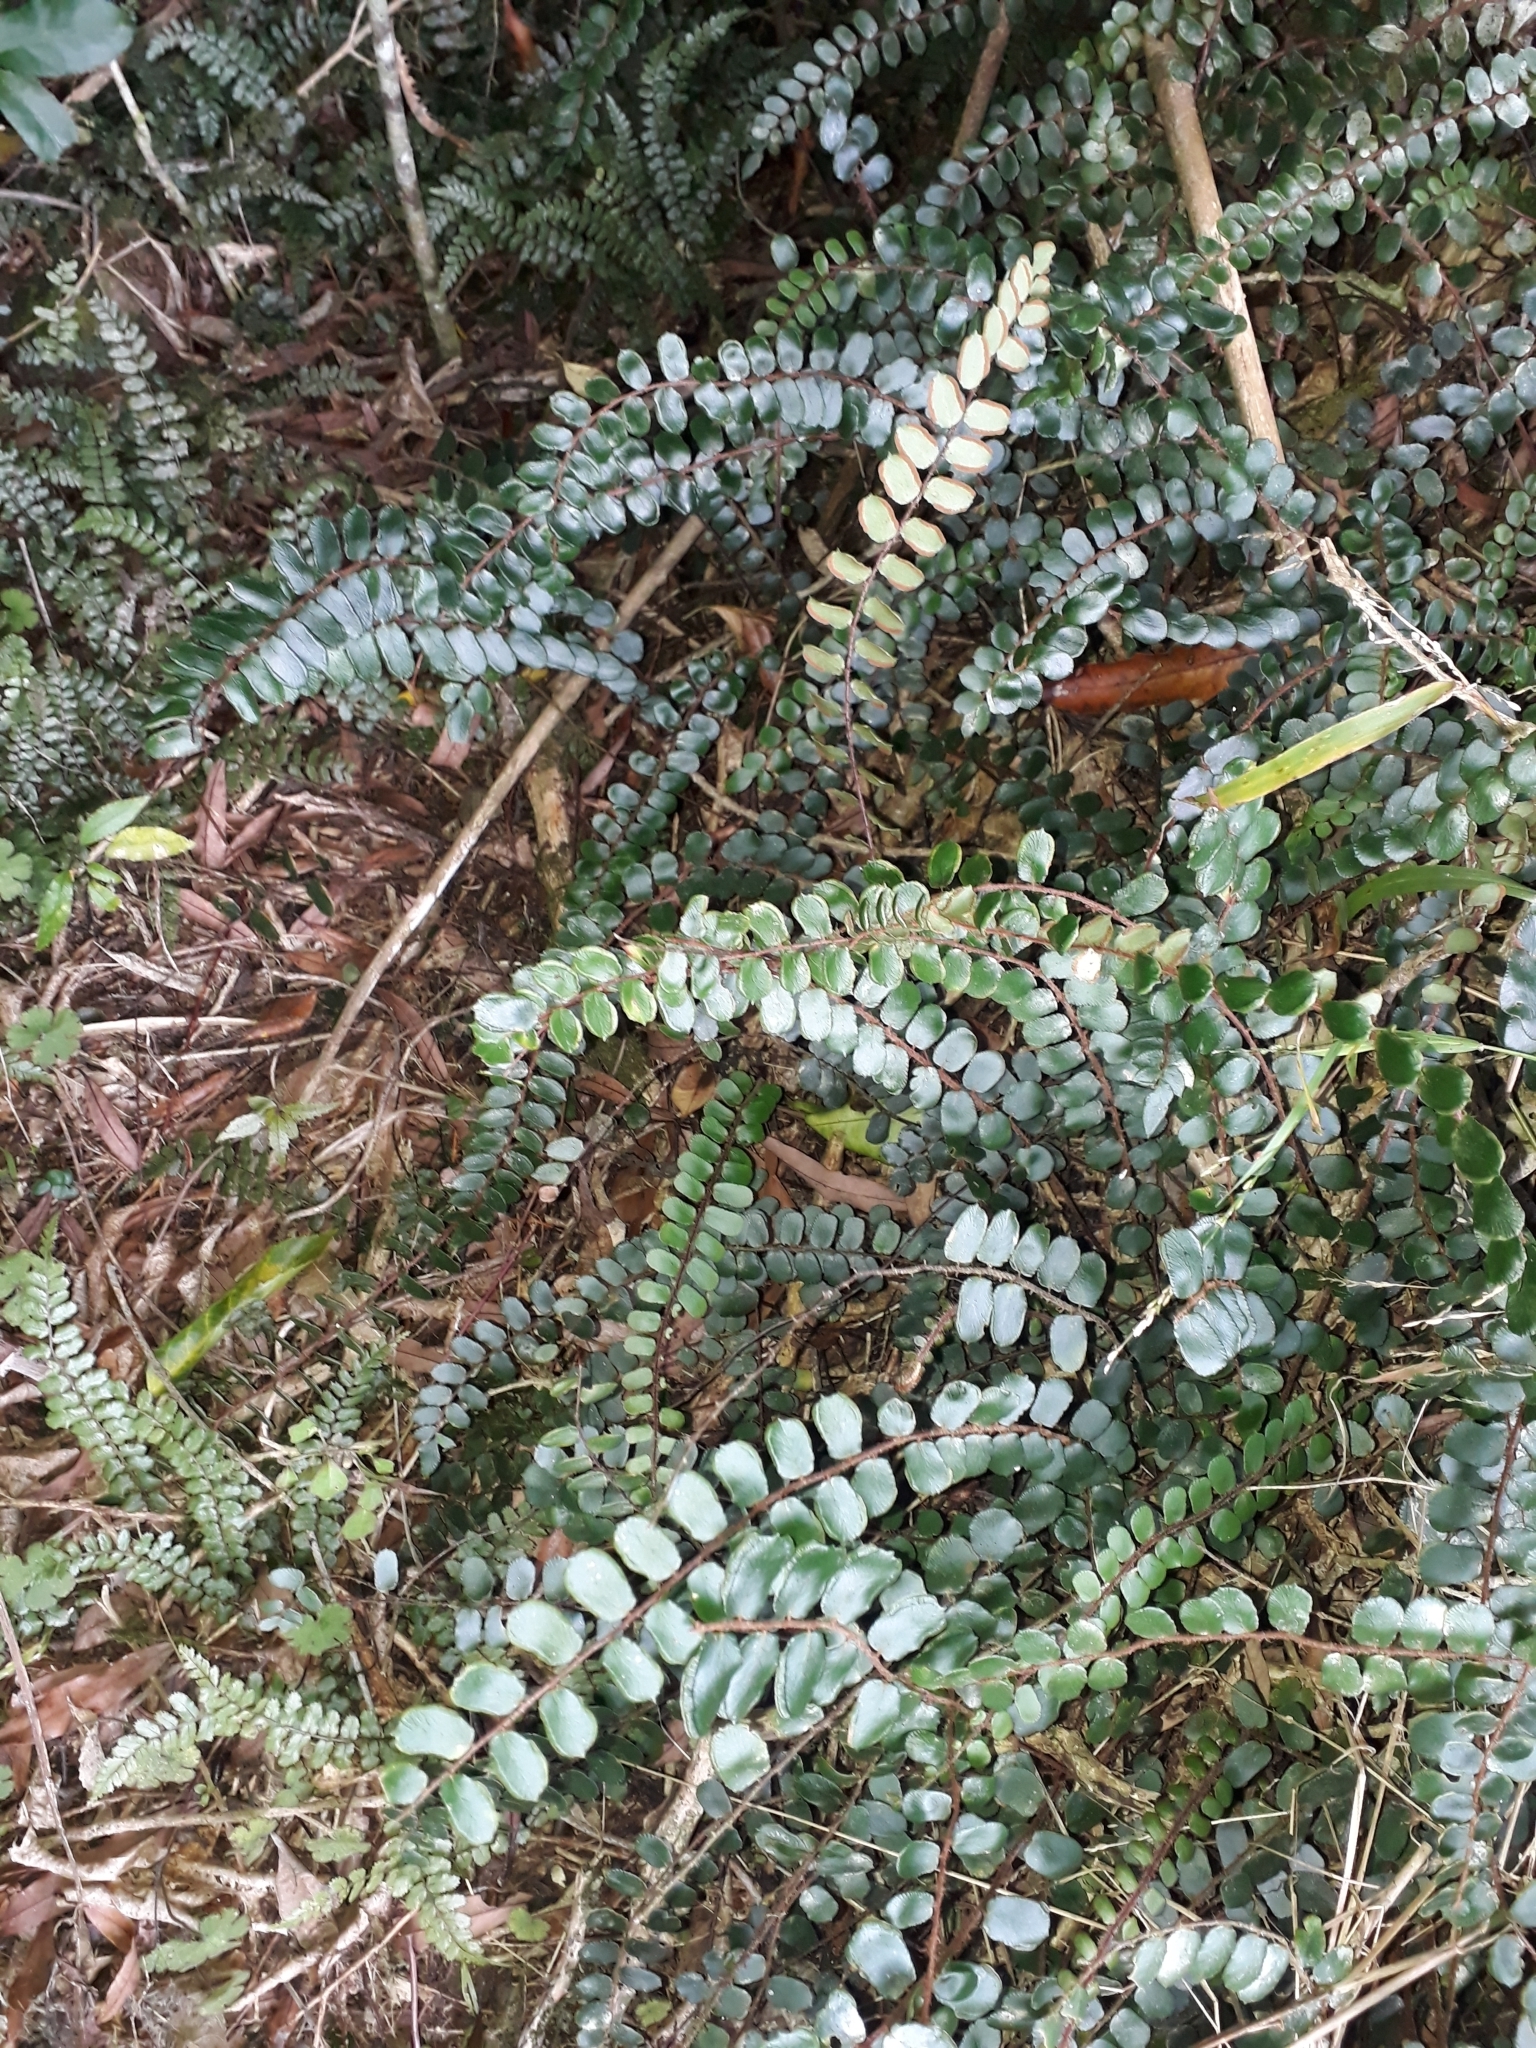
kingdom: Plantae
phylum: Tracheophyta
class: Polypodiopsida
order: Polypodiales
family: Pteridaceae
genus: Pellaea
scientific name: Pellaea rotundifolia
